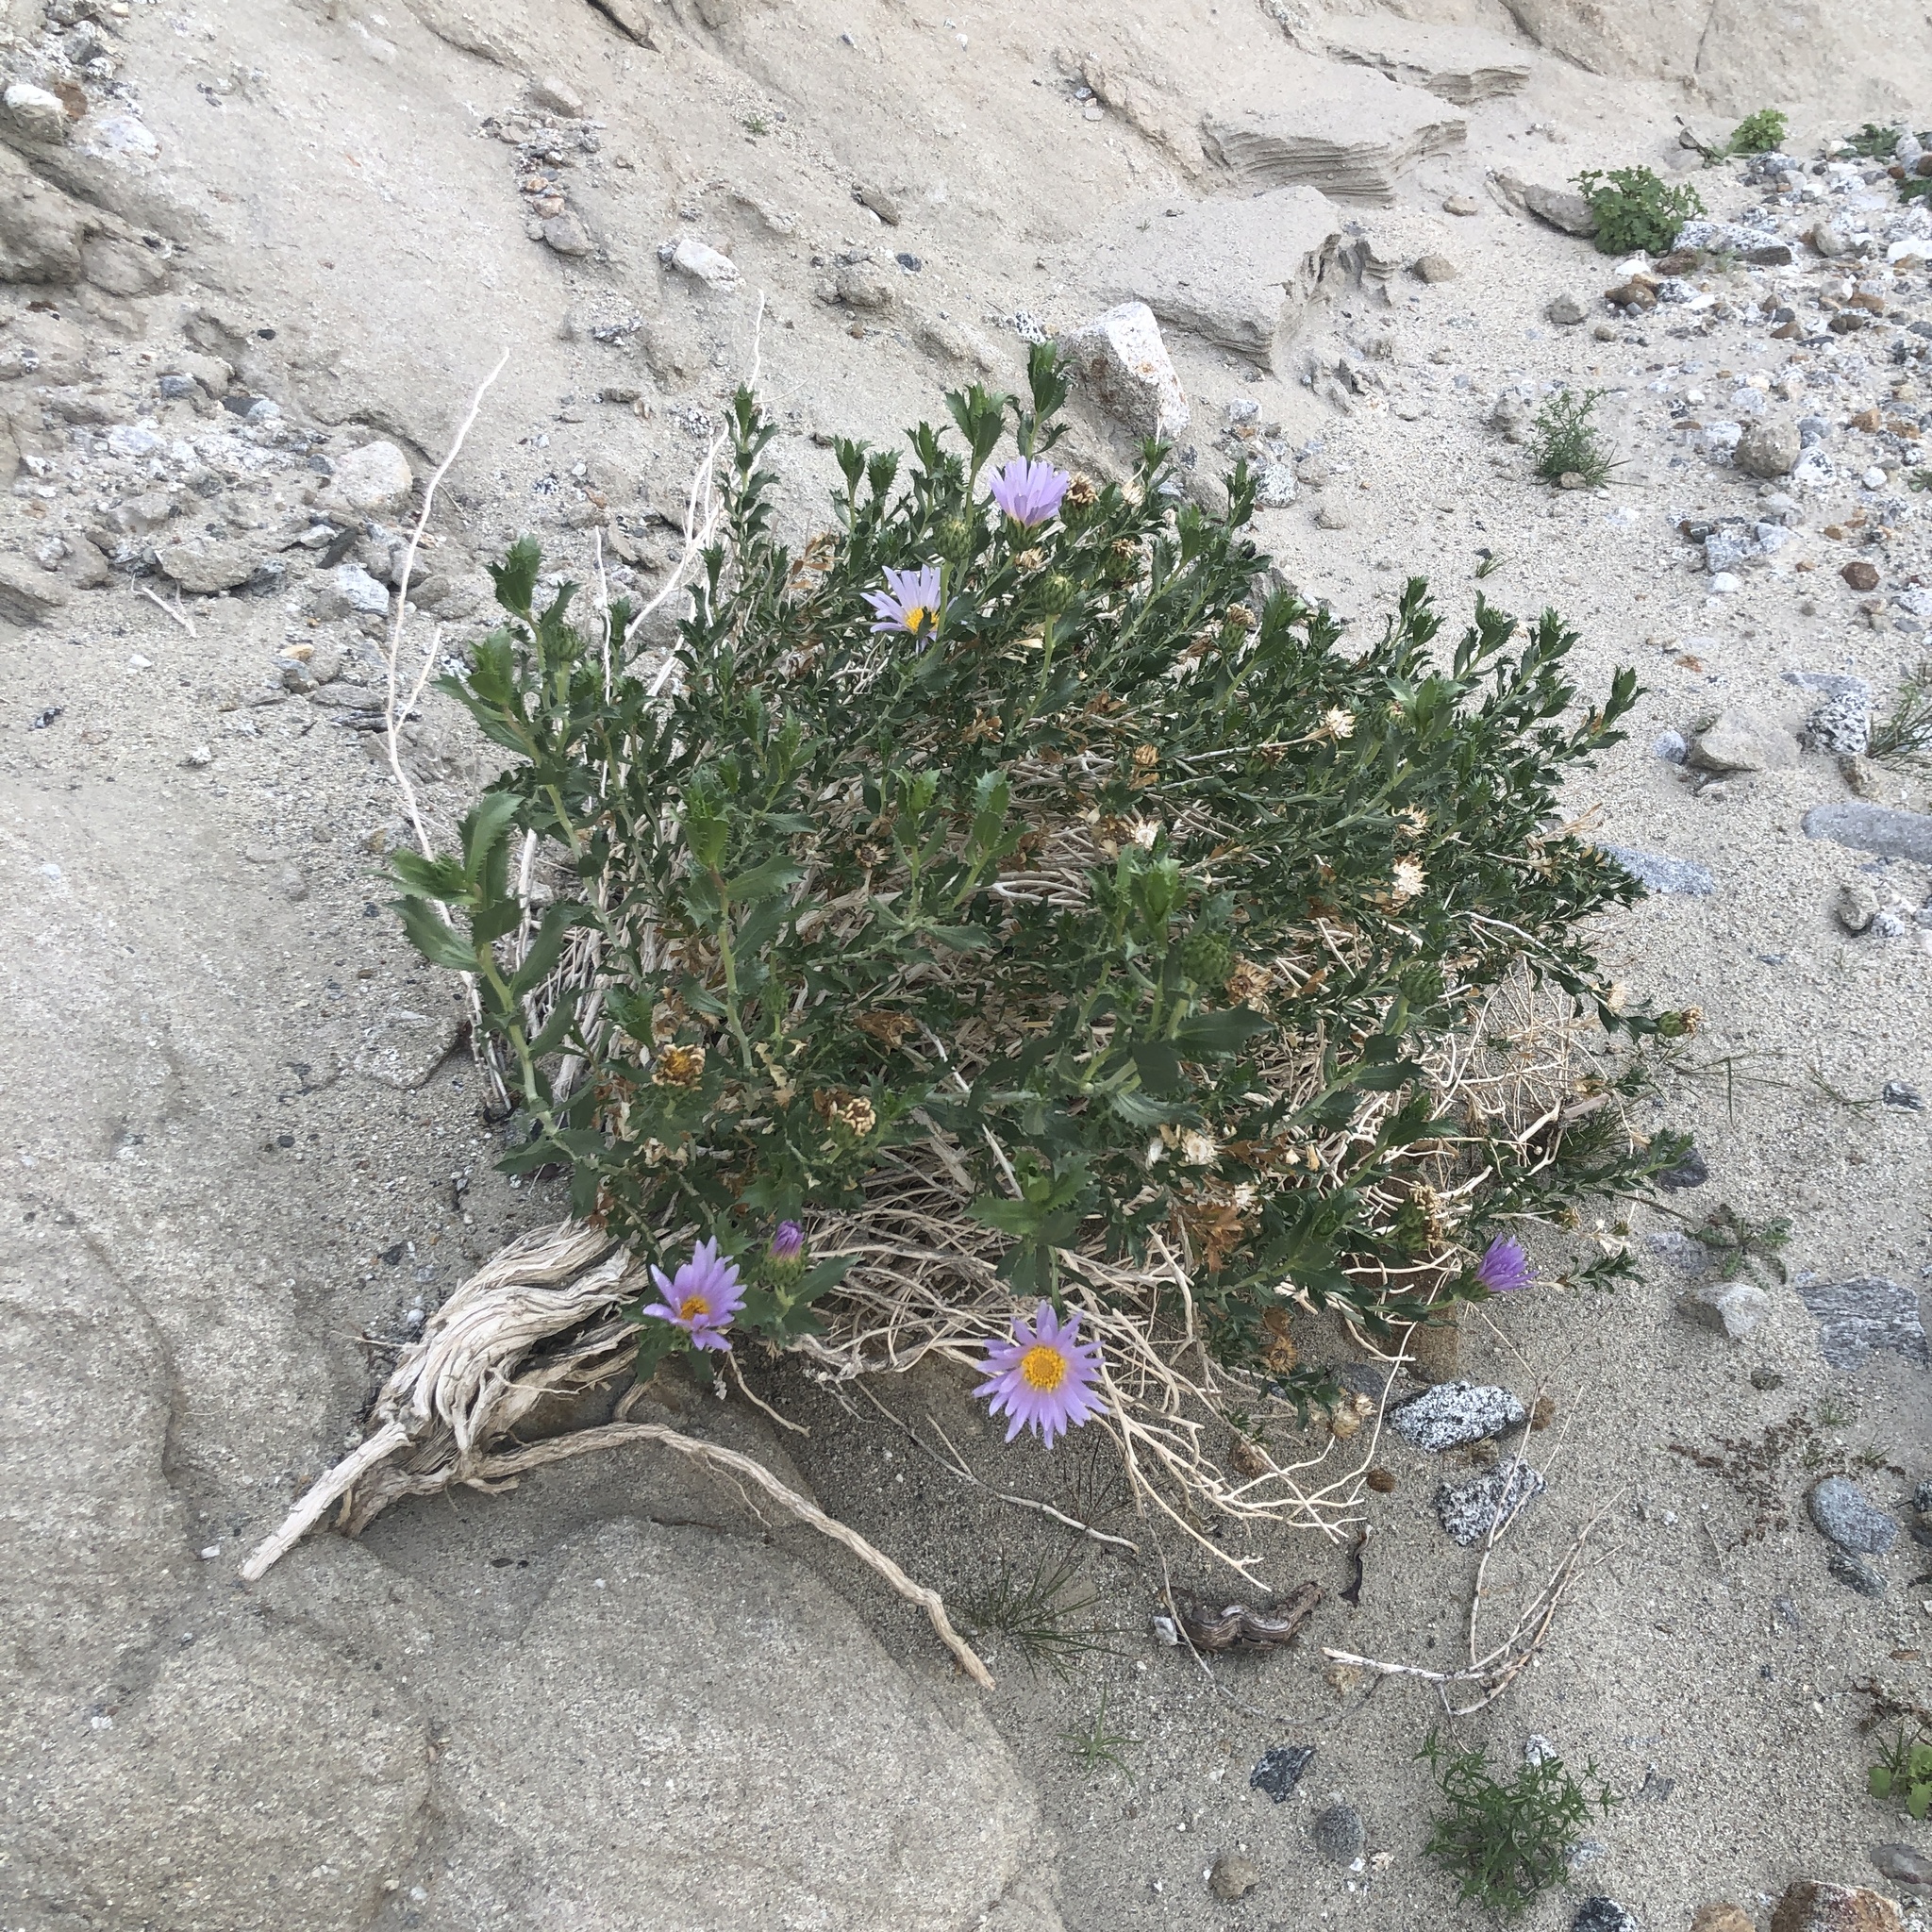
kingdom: Plantae
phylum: Tracheophyta
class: Magnoliopsida
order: Asterales
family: Asteraceae
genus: Xylorhiza
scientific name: Xylorhiza orcuttii
